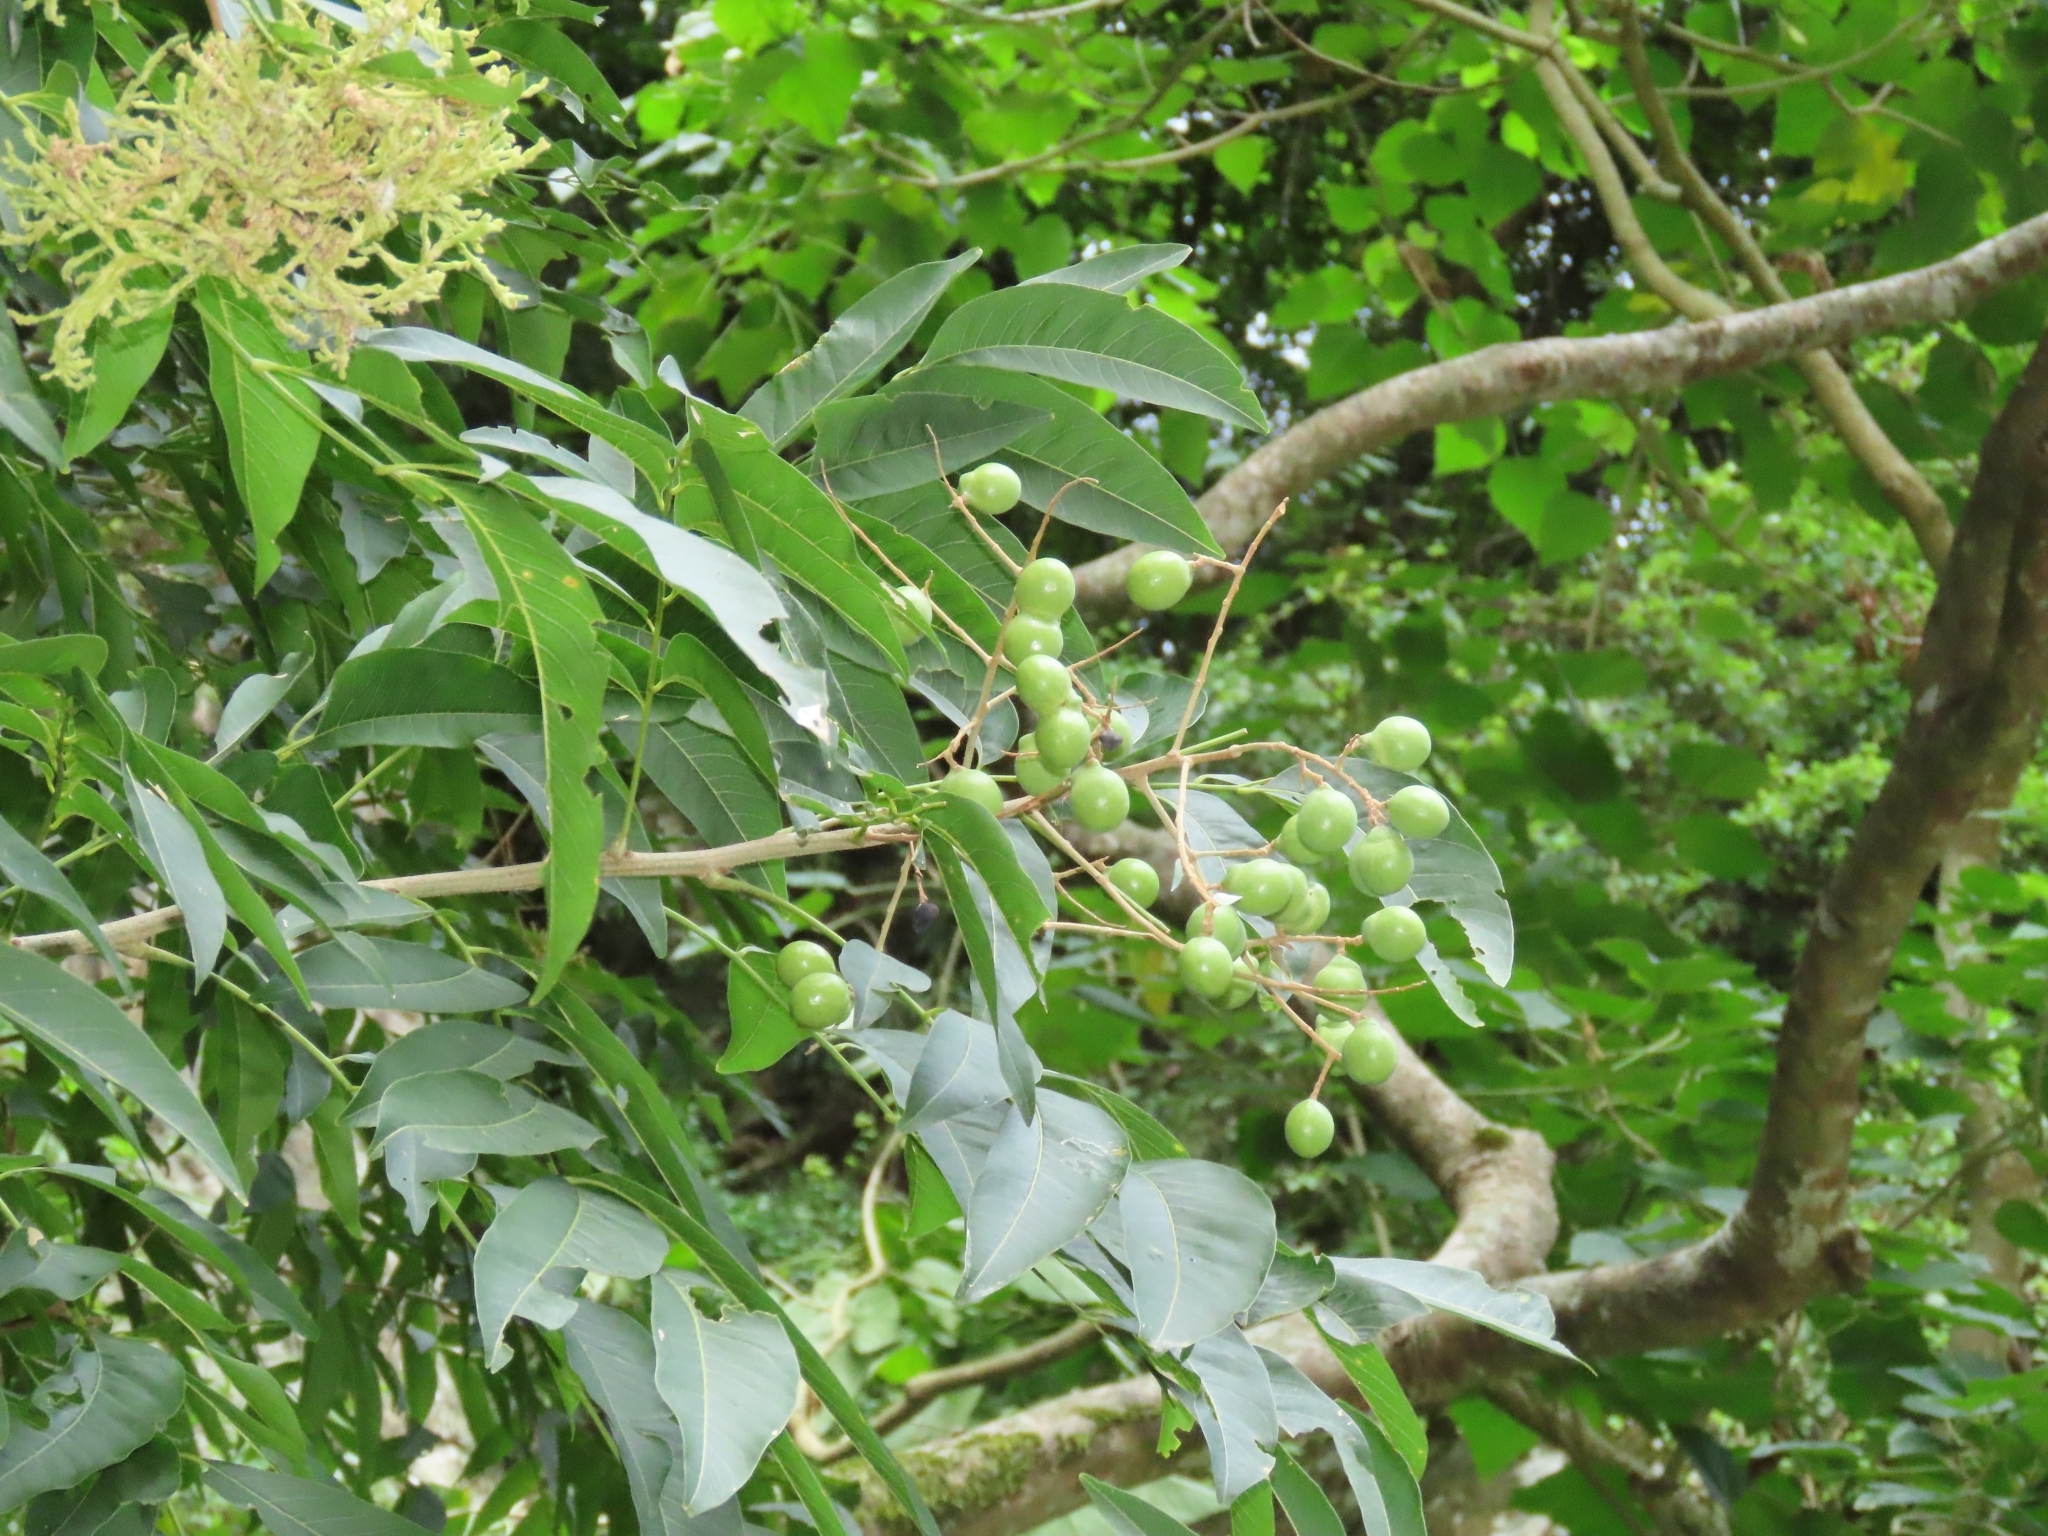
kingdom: Plantae
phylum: Tracheophyta
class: Magnoliopsida
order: Sapindales
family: Sapindaceae
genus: Sapindus
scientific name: Sapindus mukorossi
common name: Chinese soapberry
